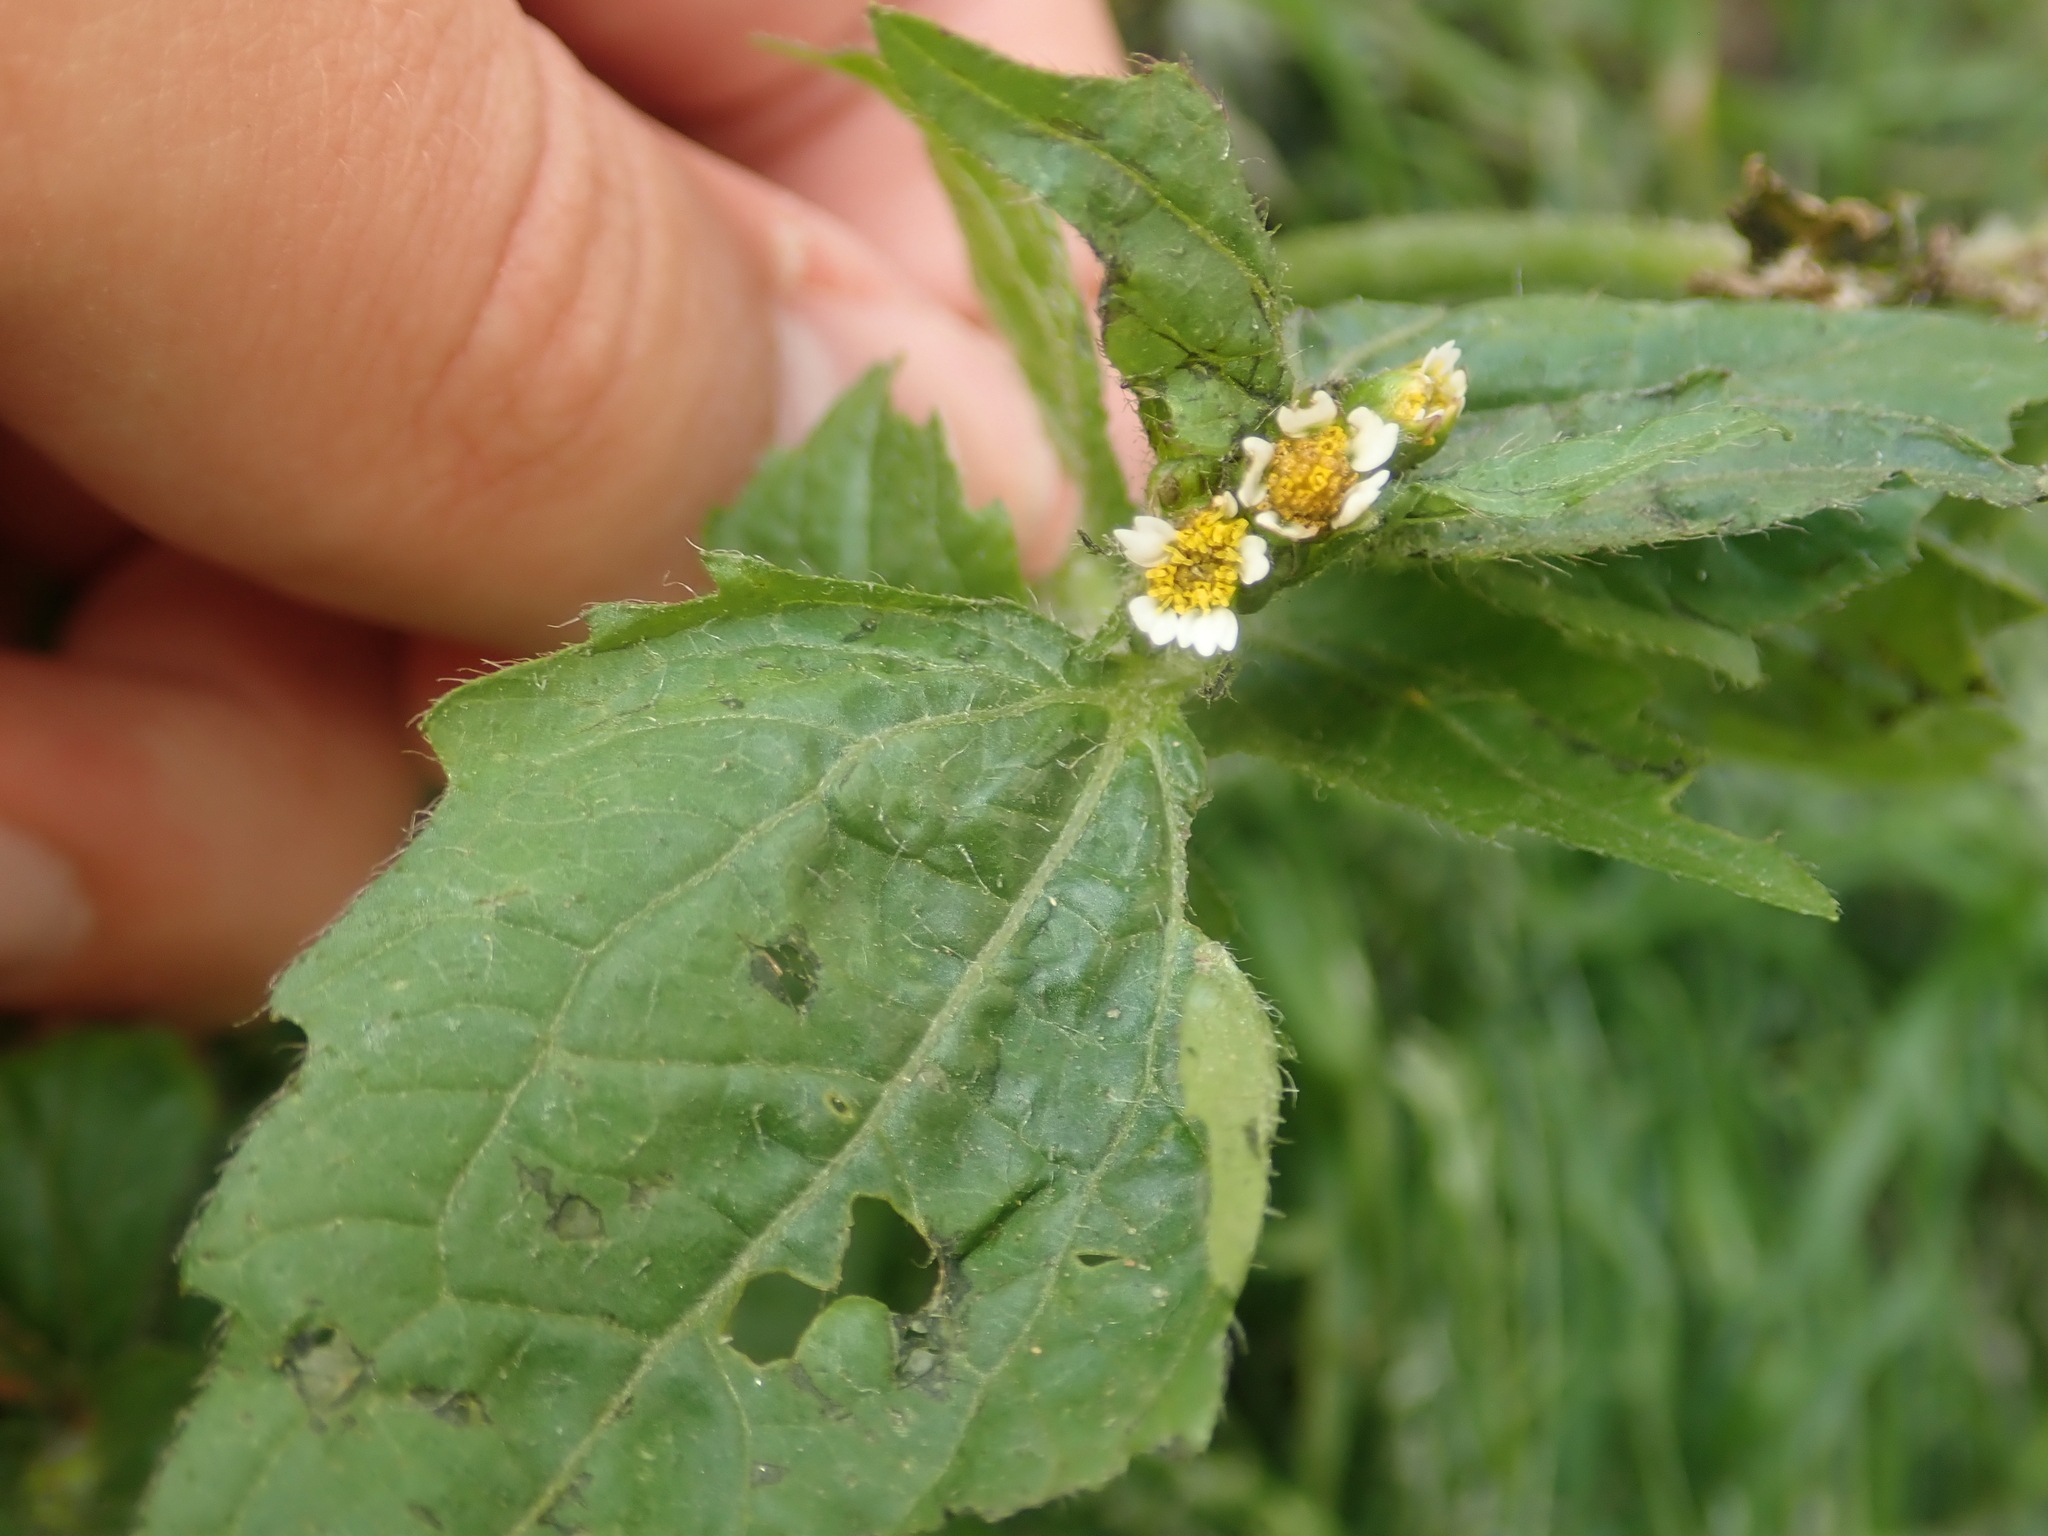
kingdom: Plantae
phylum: Tracheophyta
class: Magnoliopsida
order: Asterales
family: Asteraceae
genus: Galinsoga
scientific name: Galinsoga quadriradiata
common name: Shaggy soldier
